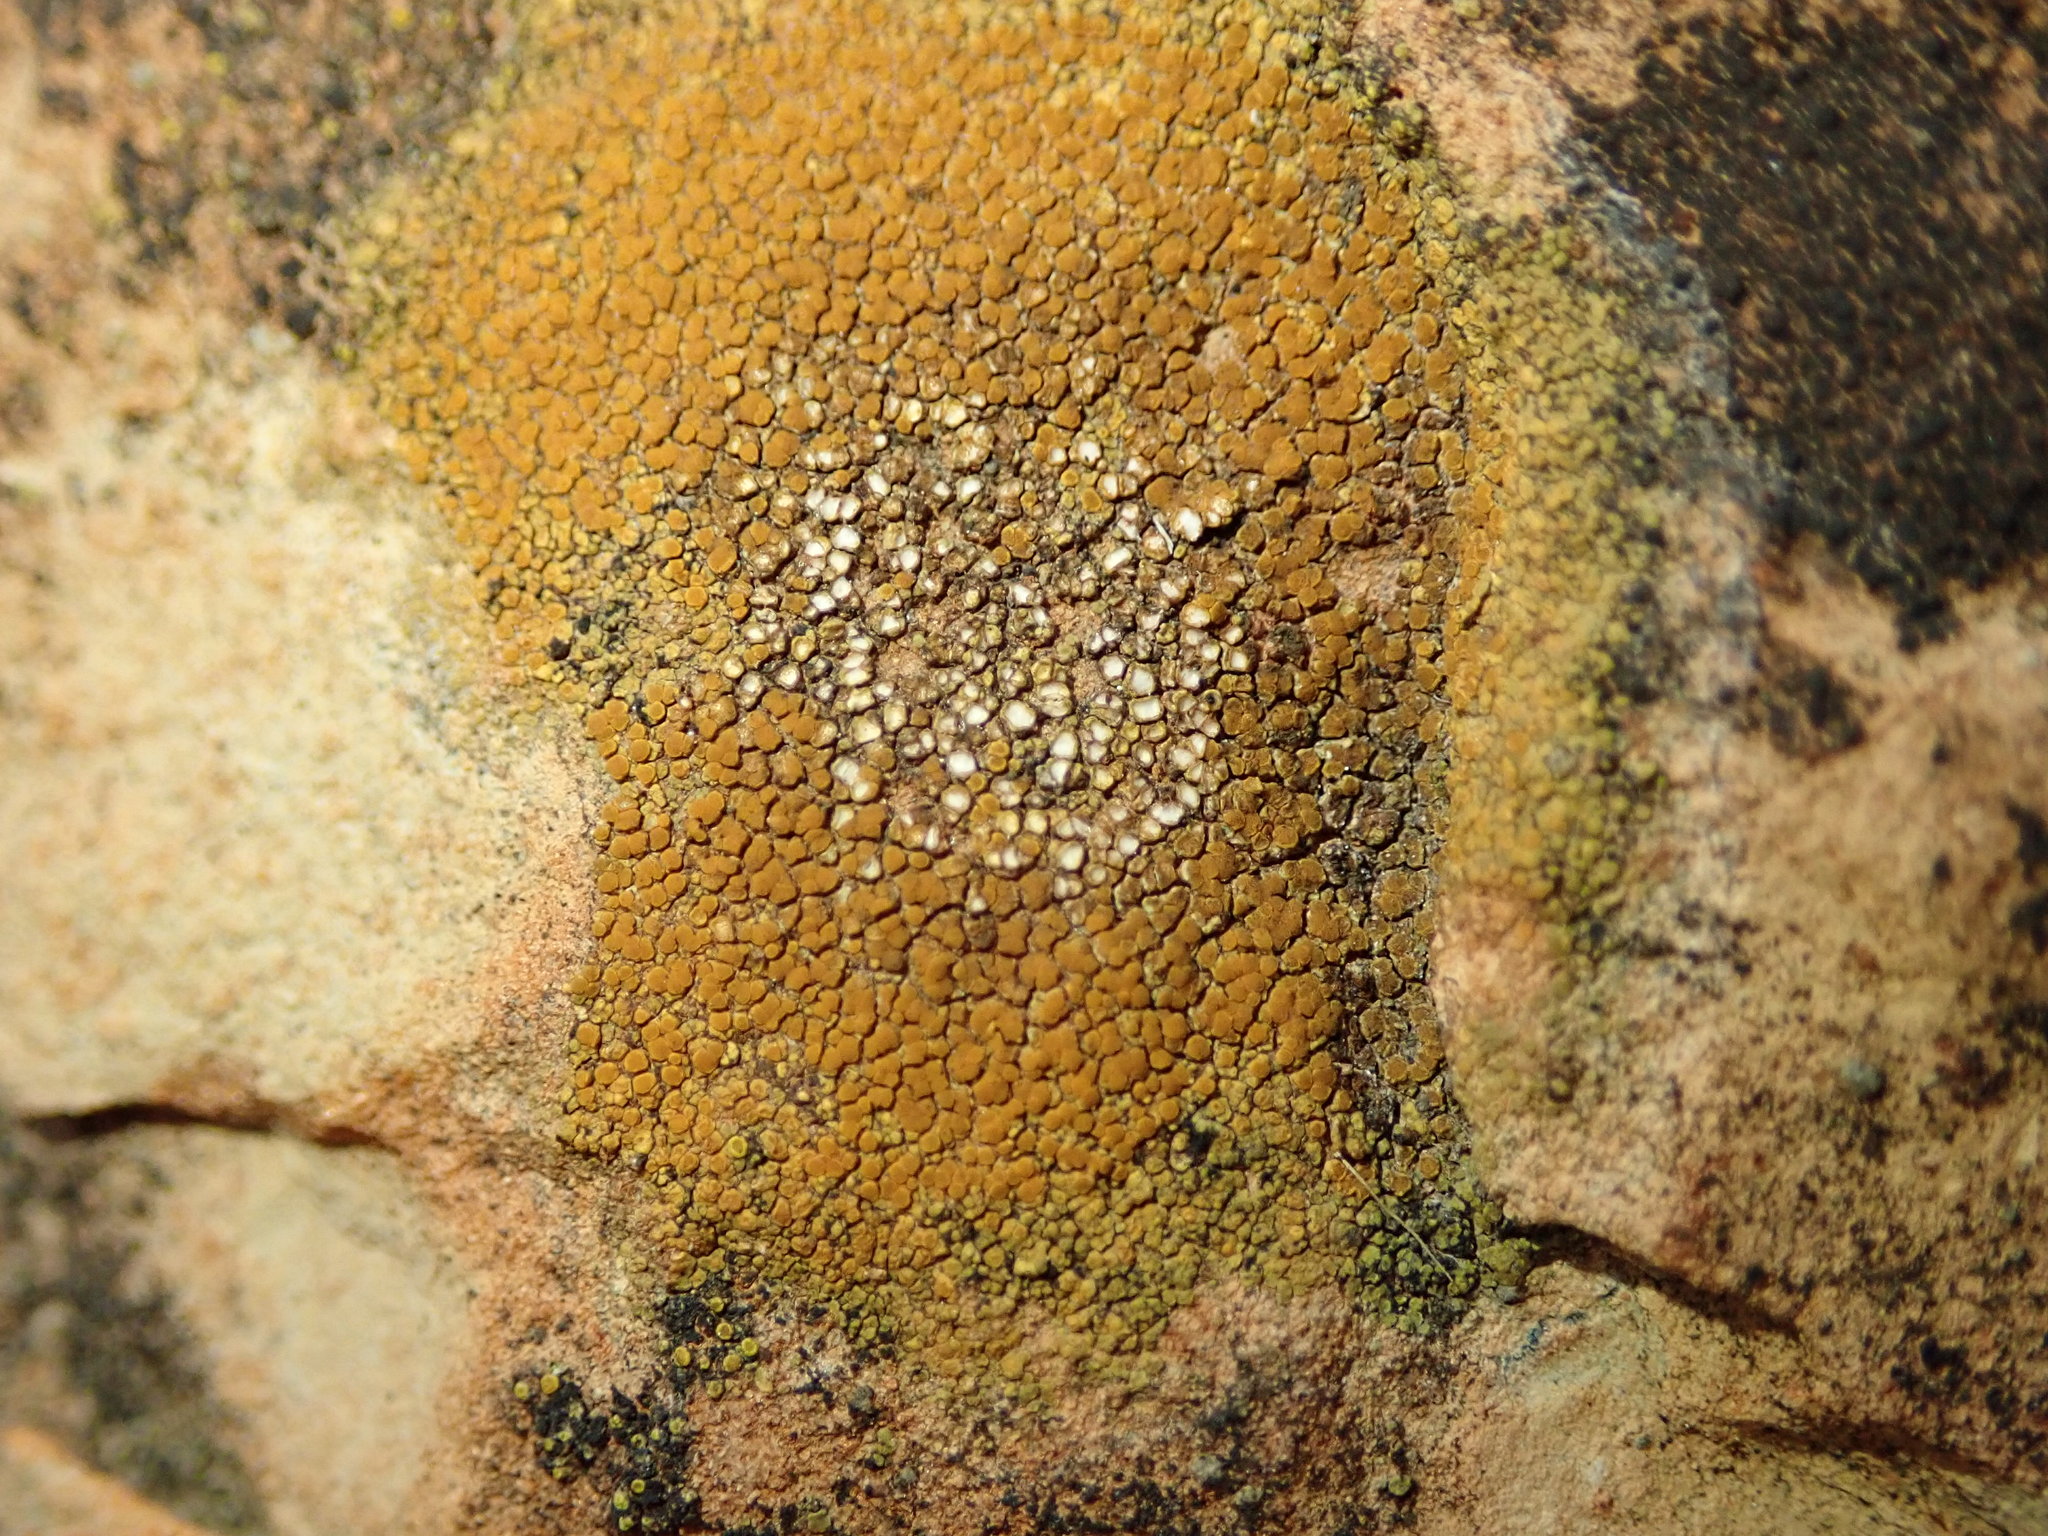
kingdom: Fungi
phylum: Ascomycota
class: Lecanoromycetes
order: Teloschistales
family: Teloschistaceae
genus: Xanthocarpia
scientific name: Xanthocarpia feracissima
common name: Sidewalk firedot
